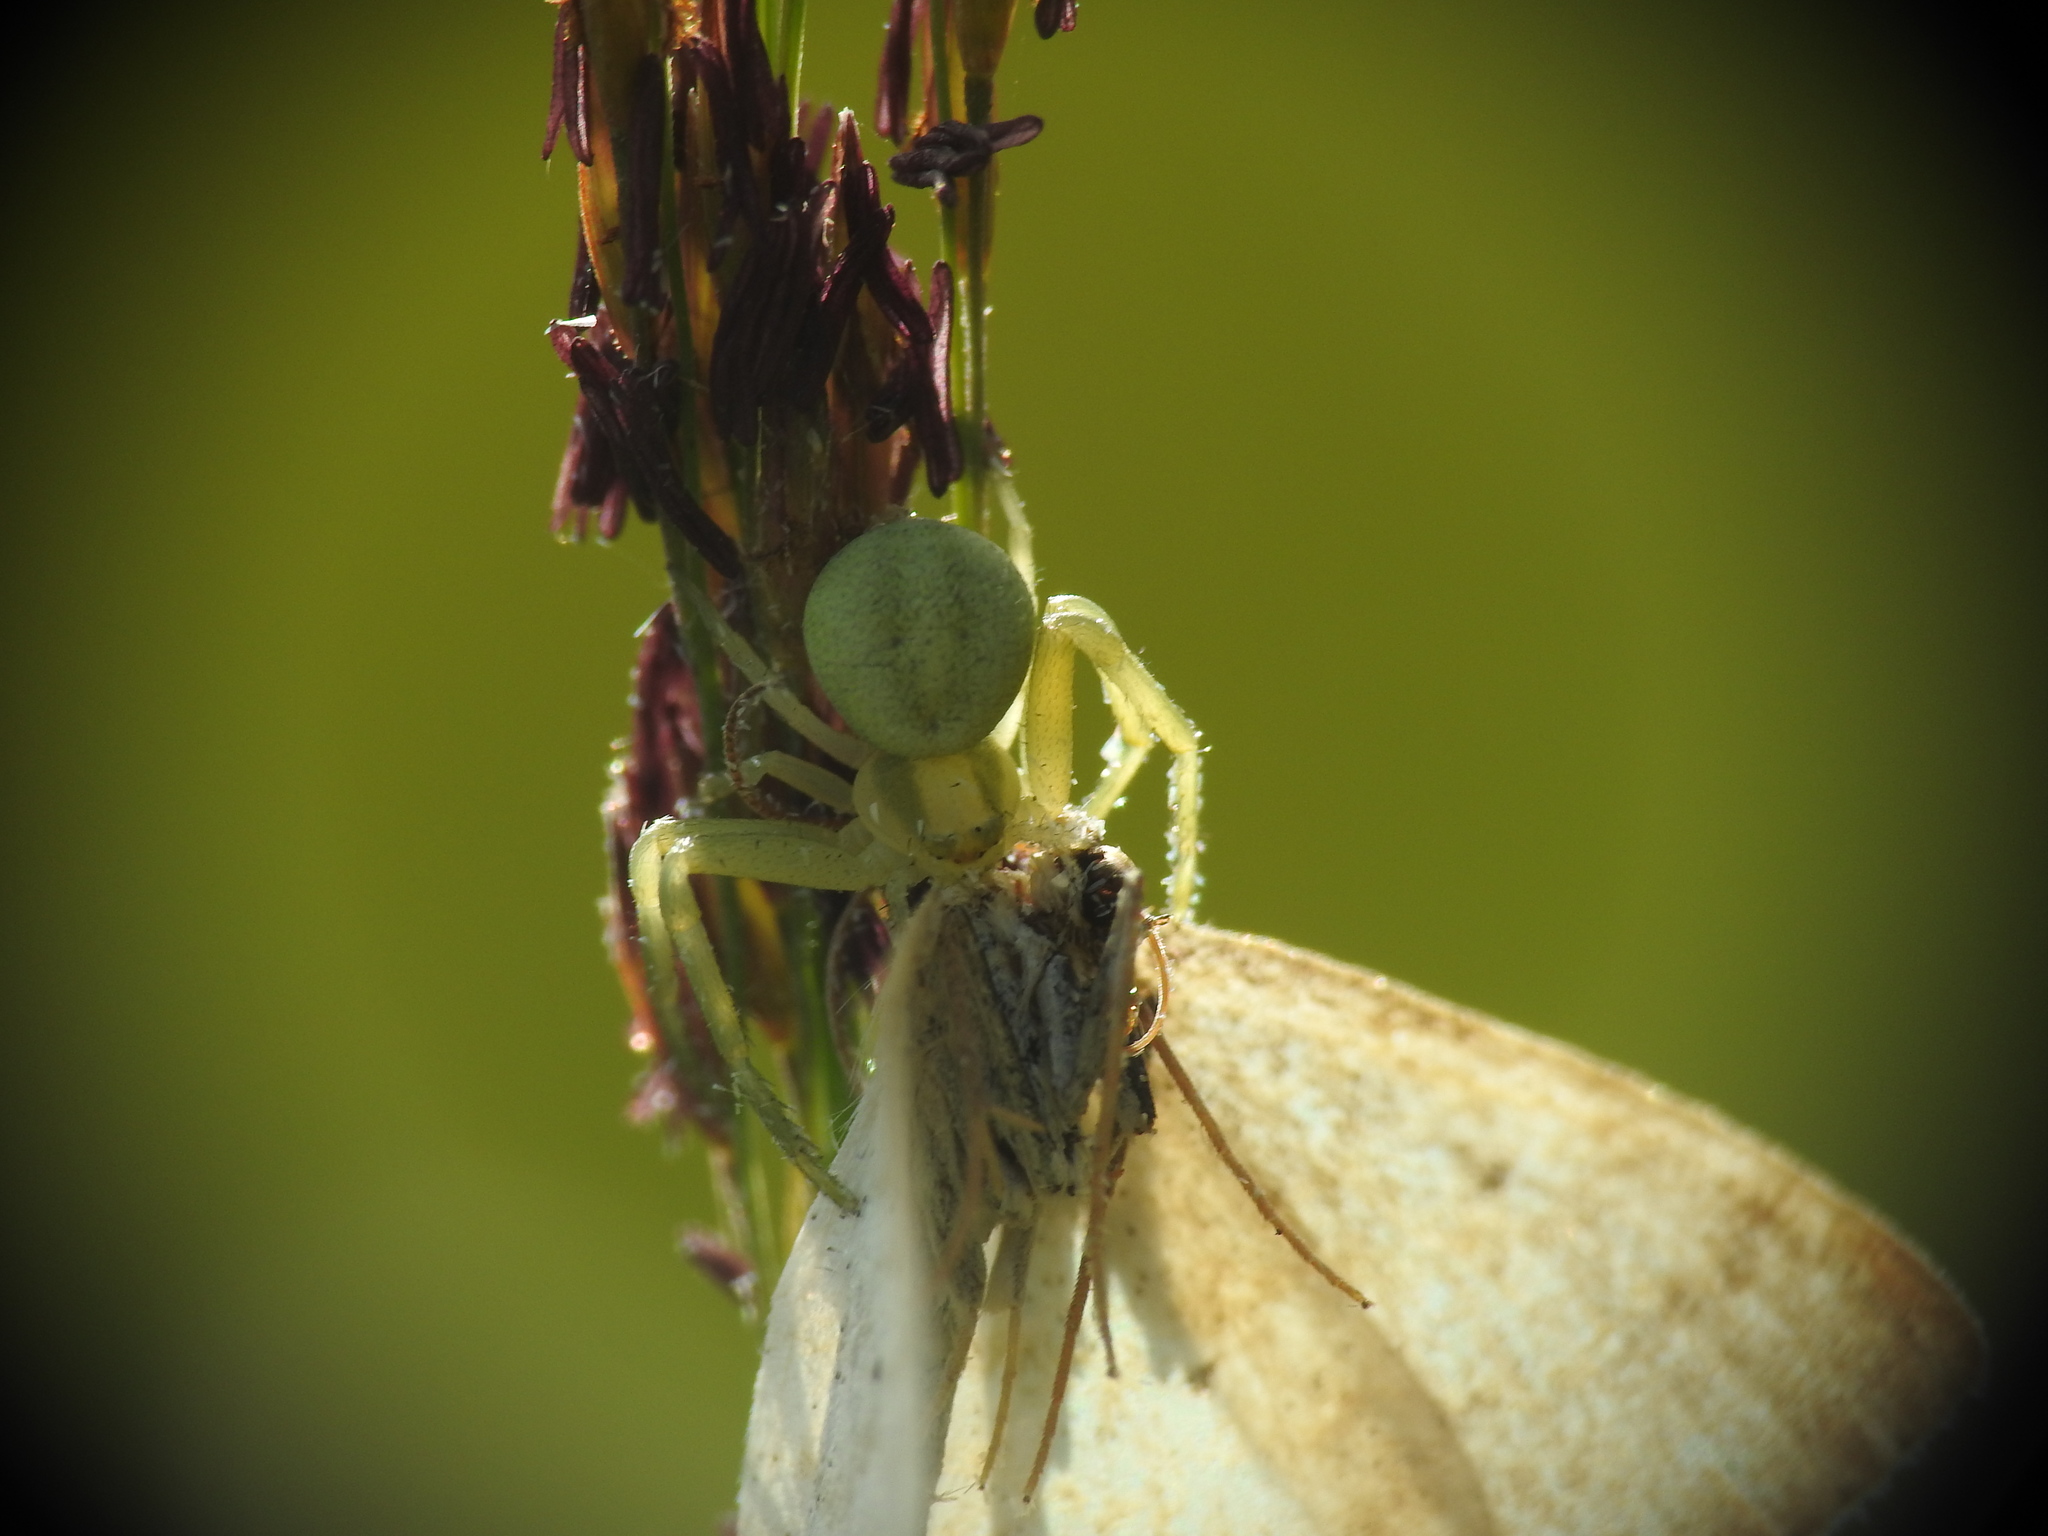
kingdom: Animalia
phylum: Arthropoda
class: Arachnida
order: Araneae
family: Thomisidae
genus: Misumena
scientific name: Misumena vatia
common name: Goldenrod crab spider
